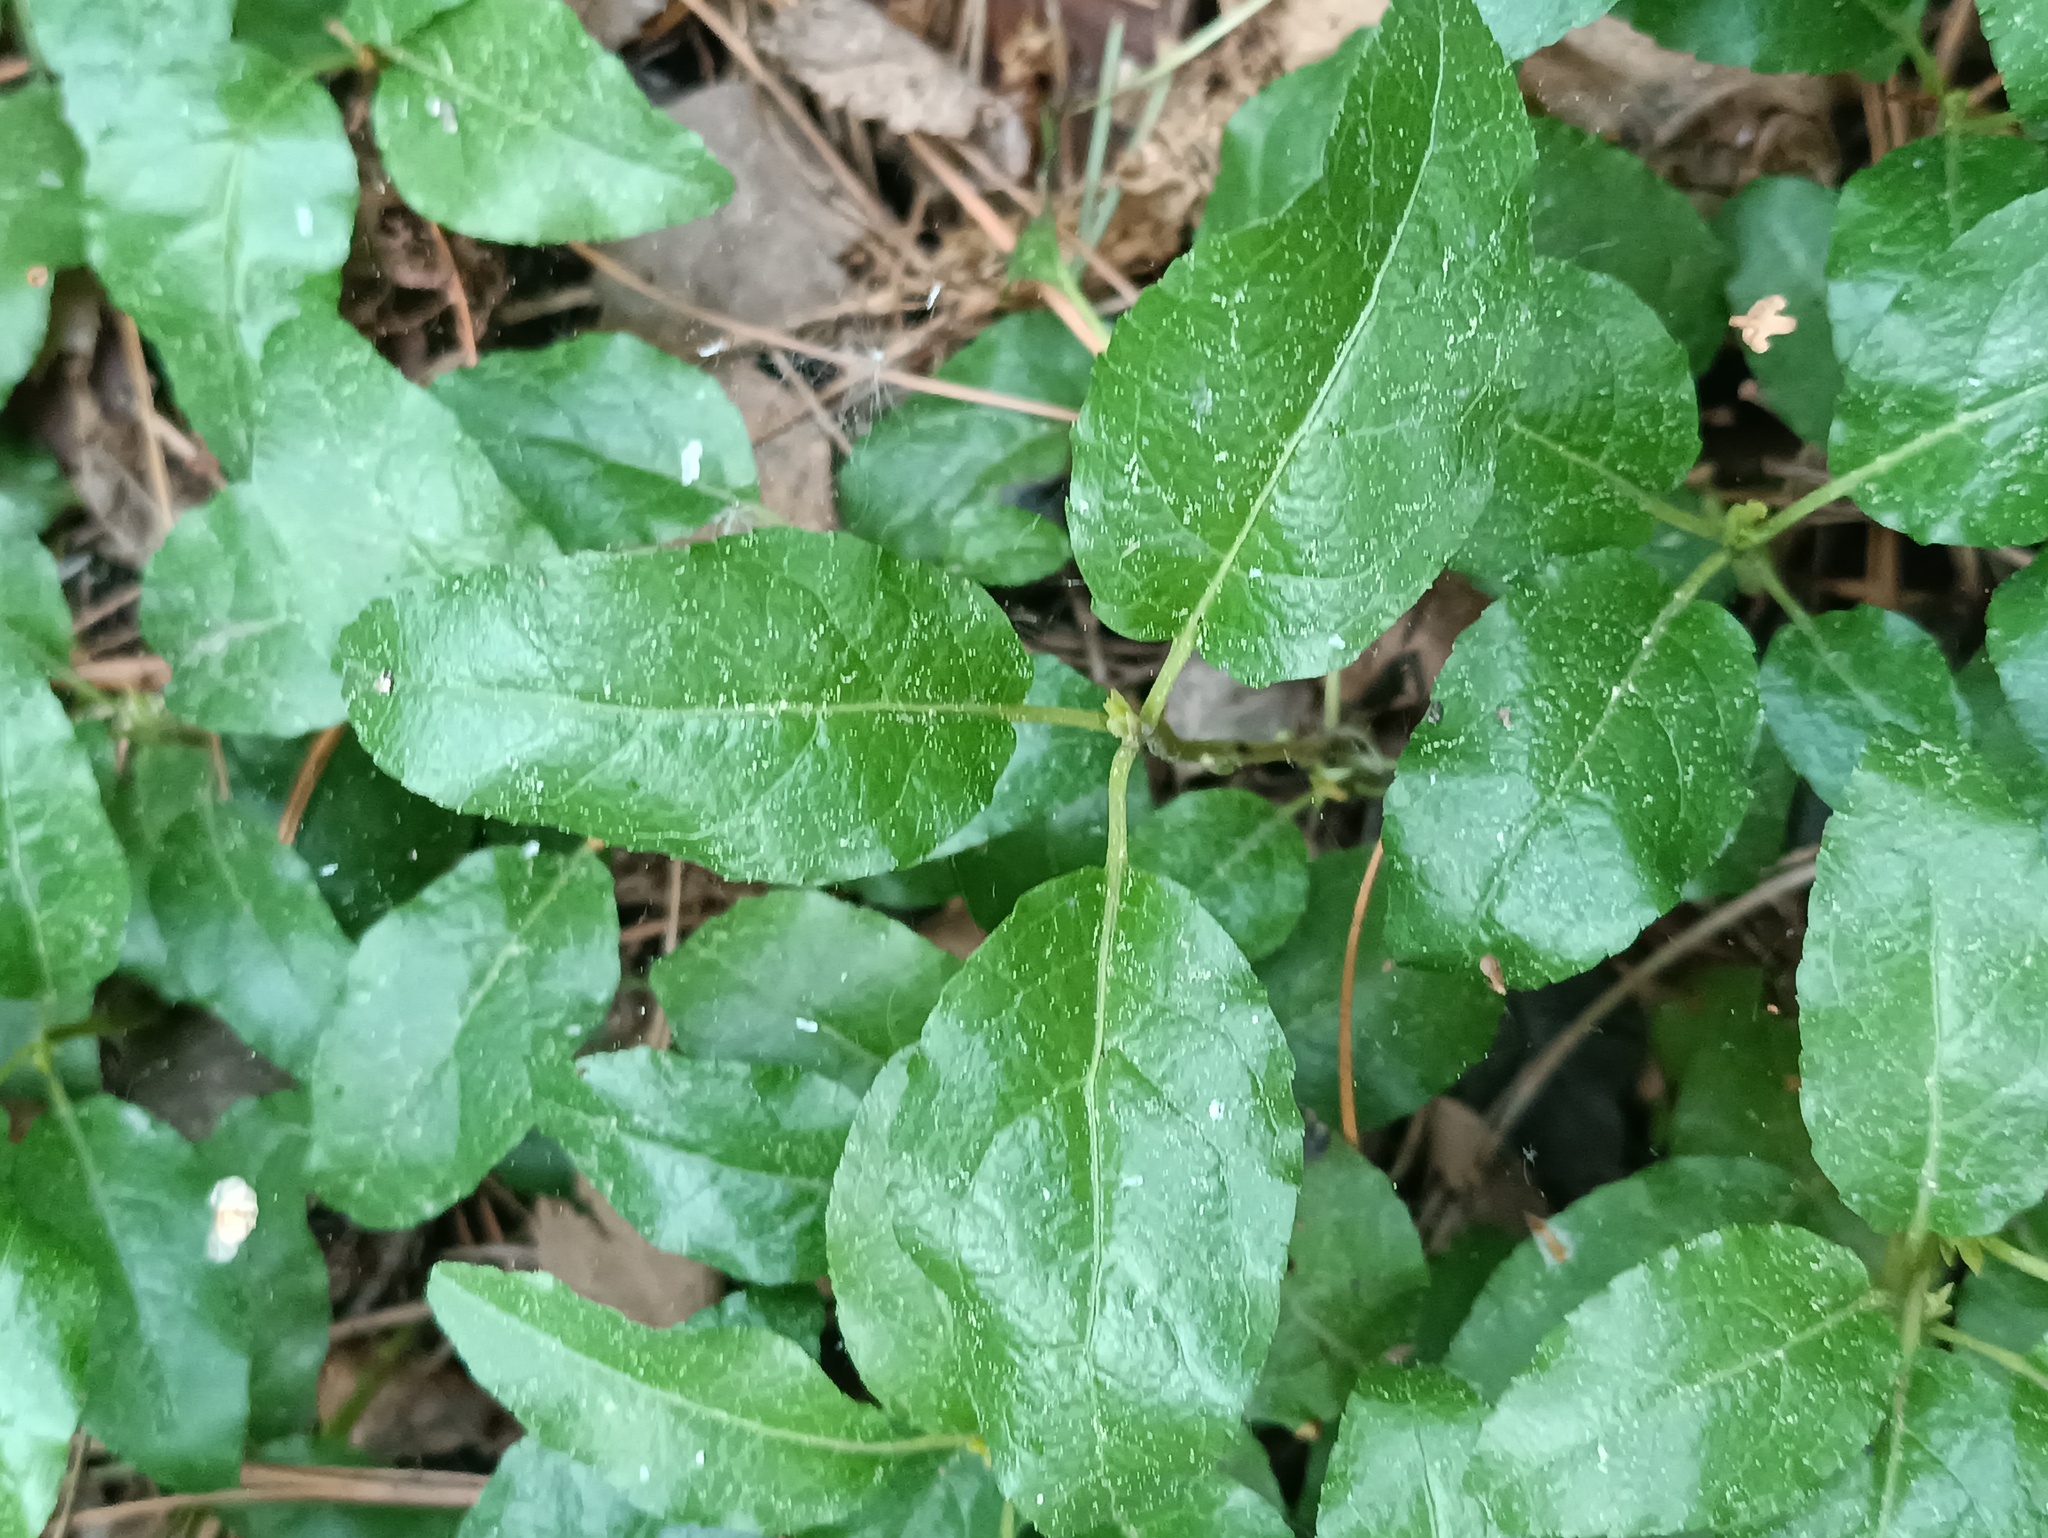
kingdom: Plantae
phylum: Tracheophyta
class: Magnoliopsida
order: Ericales
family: Ericaceae
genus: Orthilia
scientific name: Orthilia secunda
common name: One-sided orthilia
